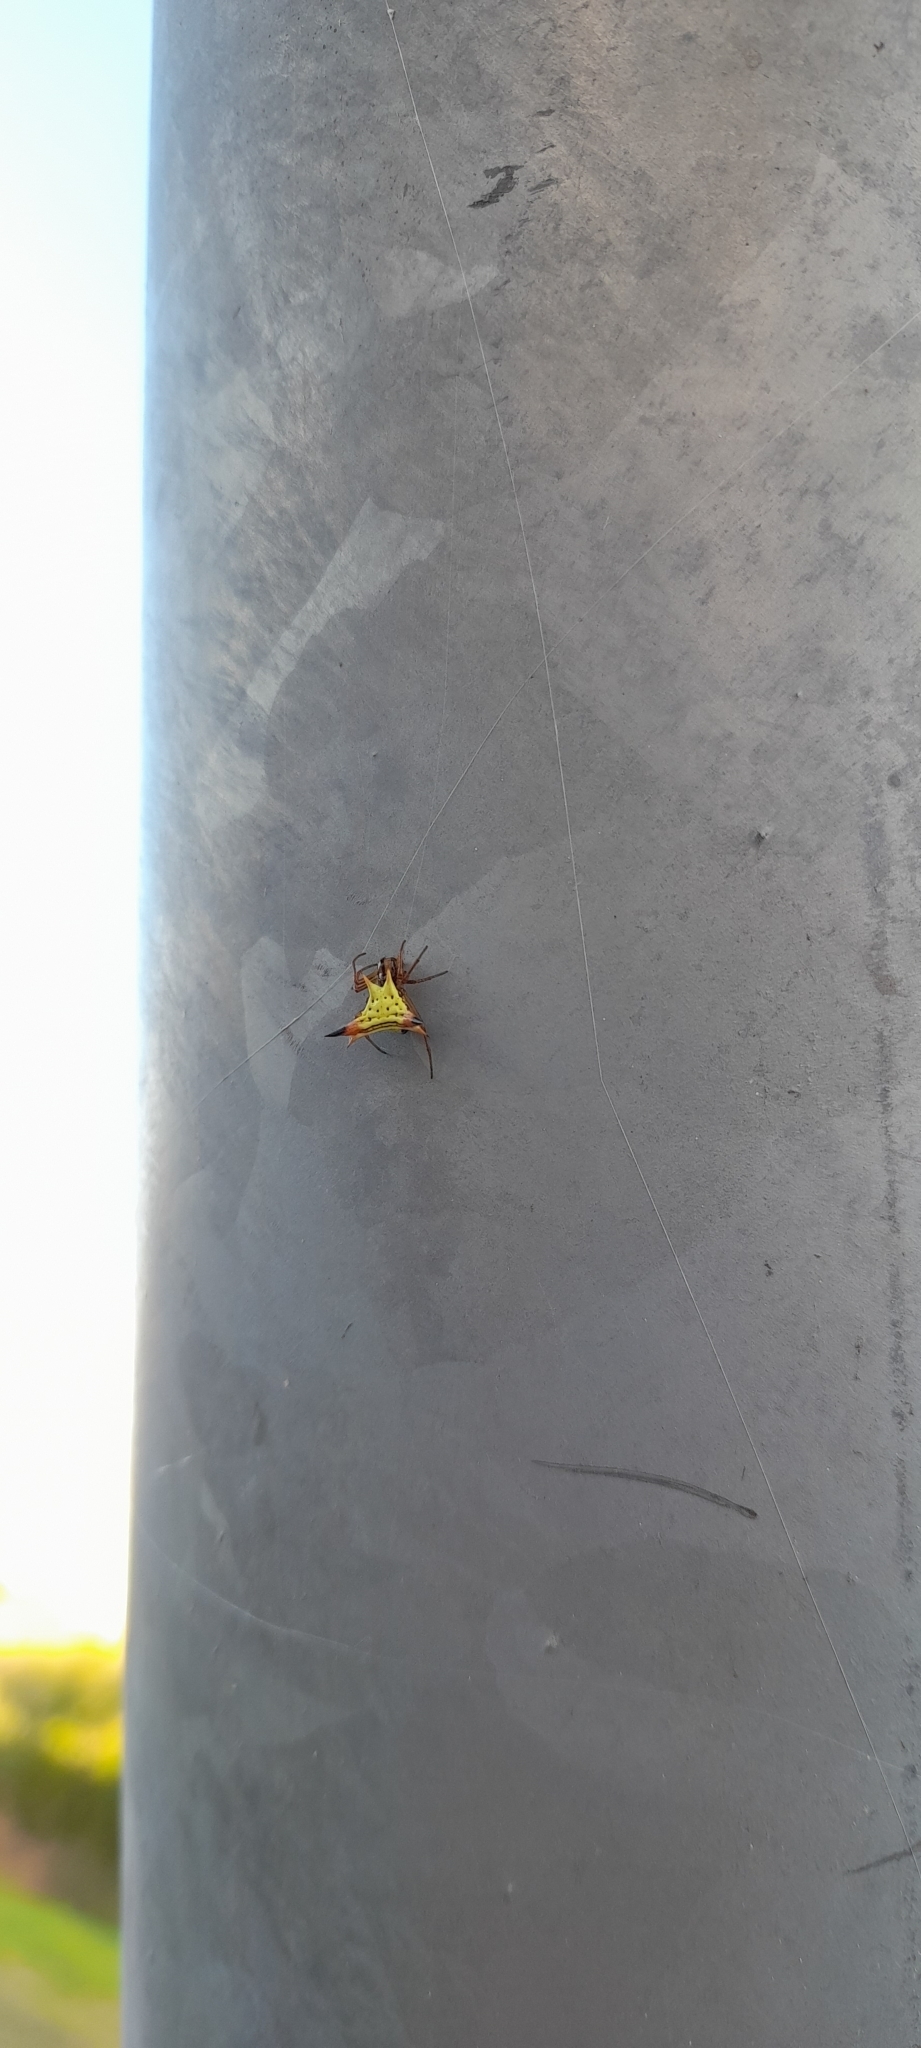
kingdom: Animalia
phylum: Arthropoda
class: Arachnida
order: Araneae
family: Araneidae
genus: Micrathena
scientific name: Micrathena furcata
